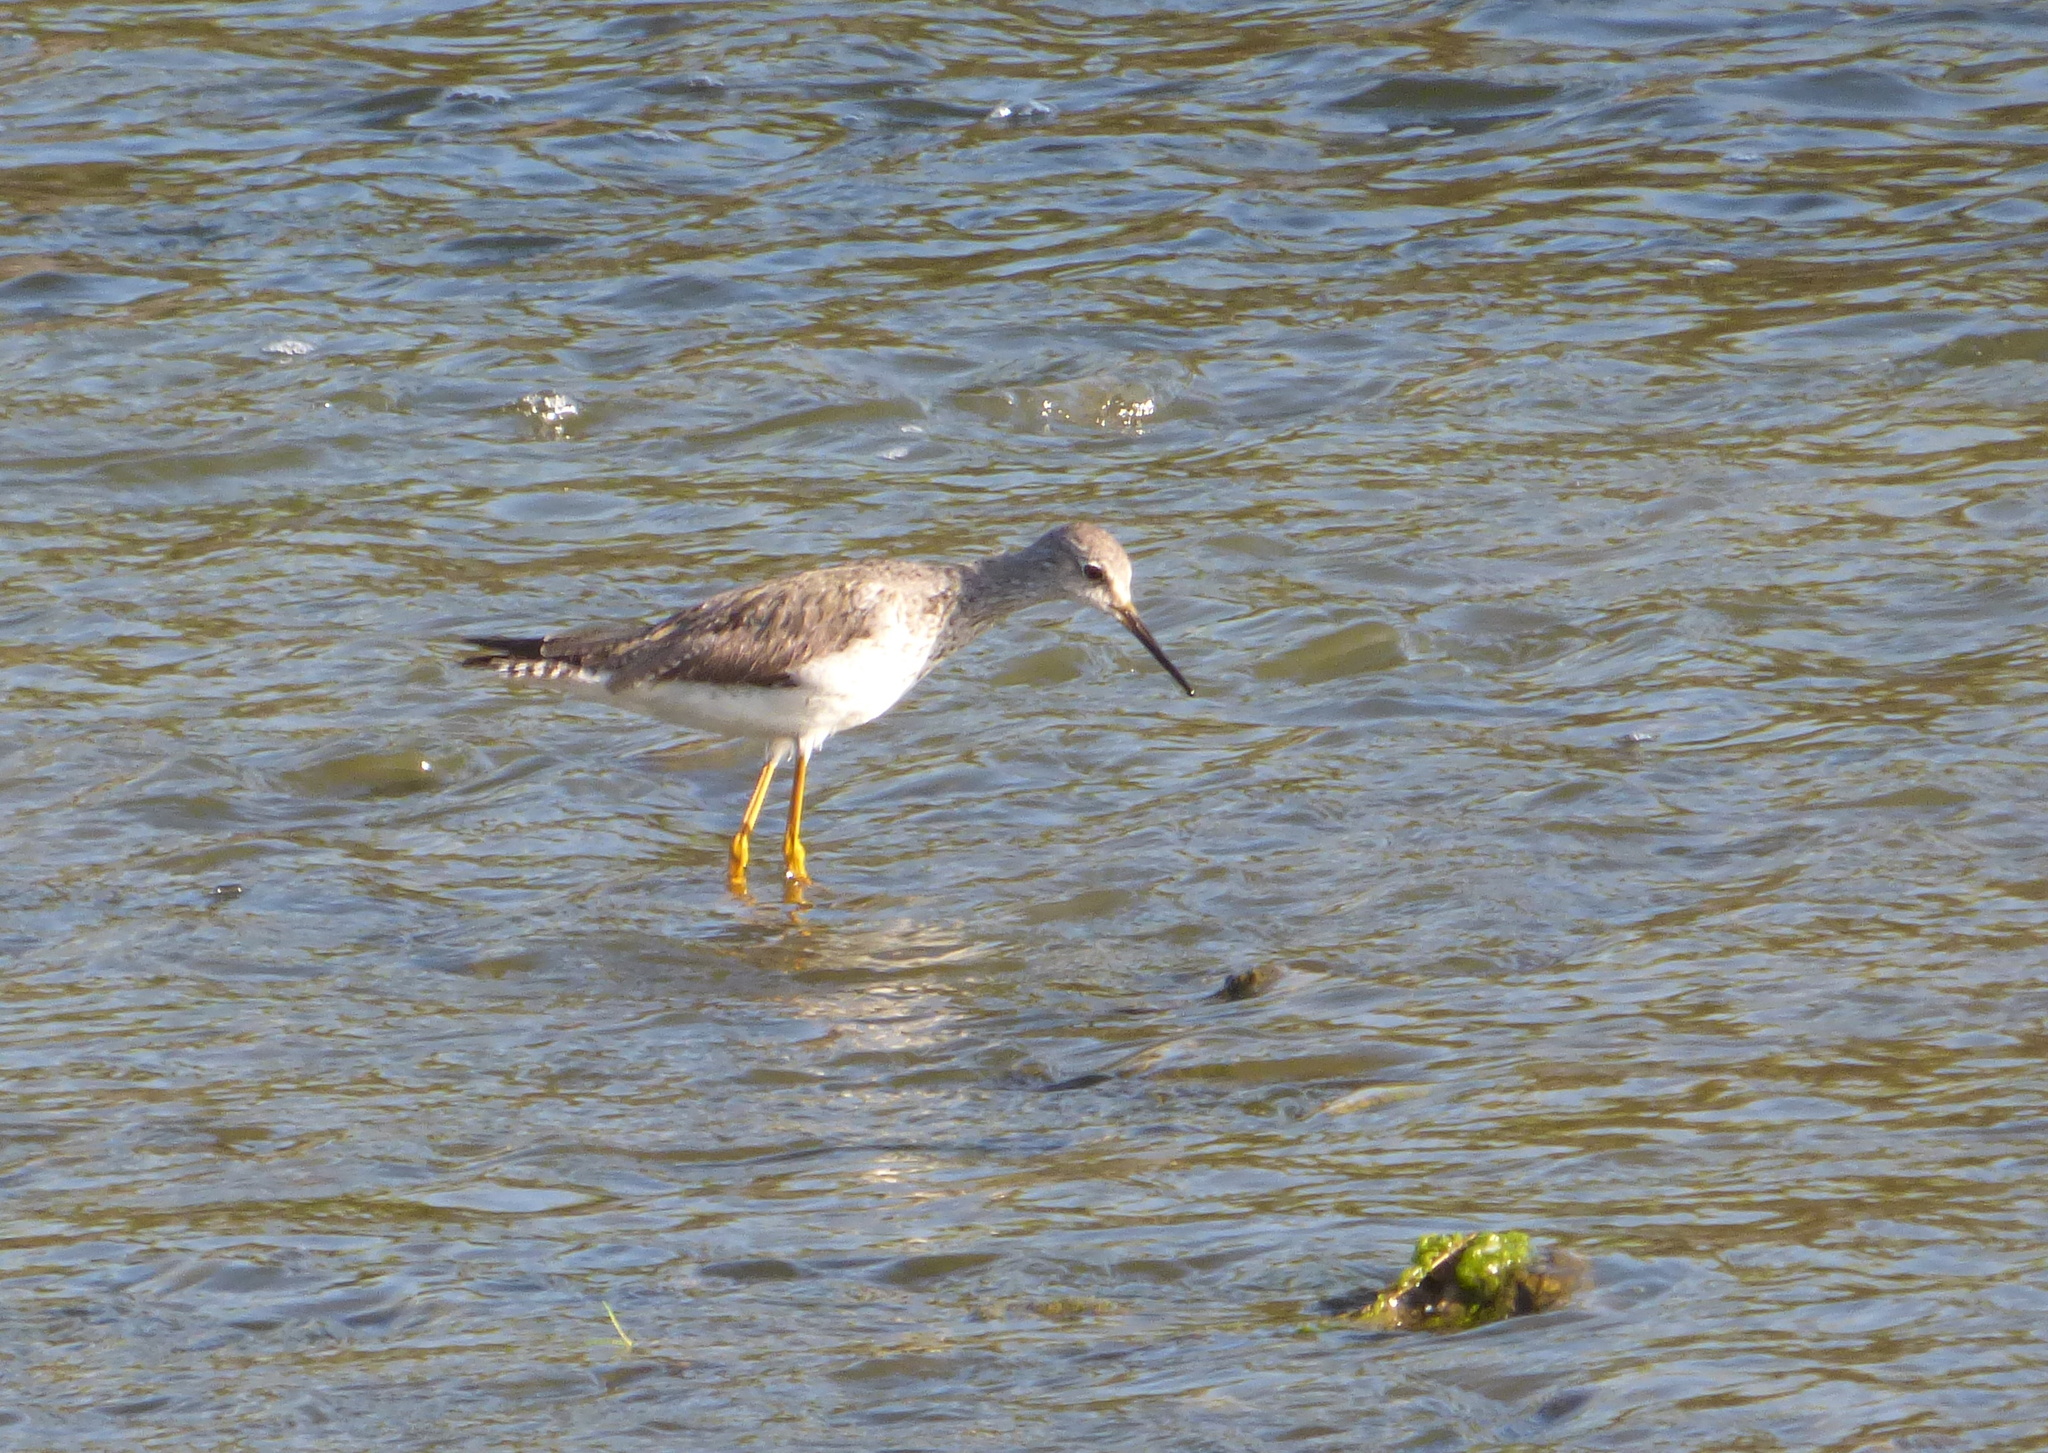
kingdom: Animalia
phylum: Chordata
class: Aves
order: Charadriiformes
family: Scolopacidae
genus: Tringa
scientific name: Tringa flavipes
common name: Lesser yellowlegs
